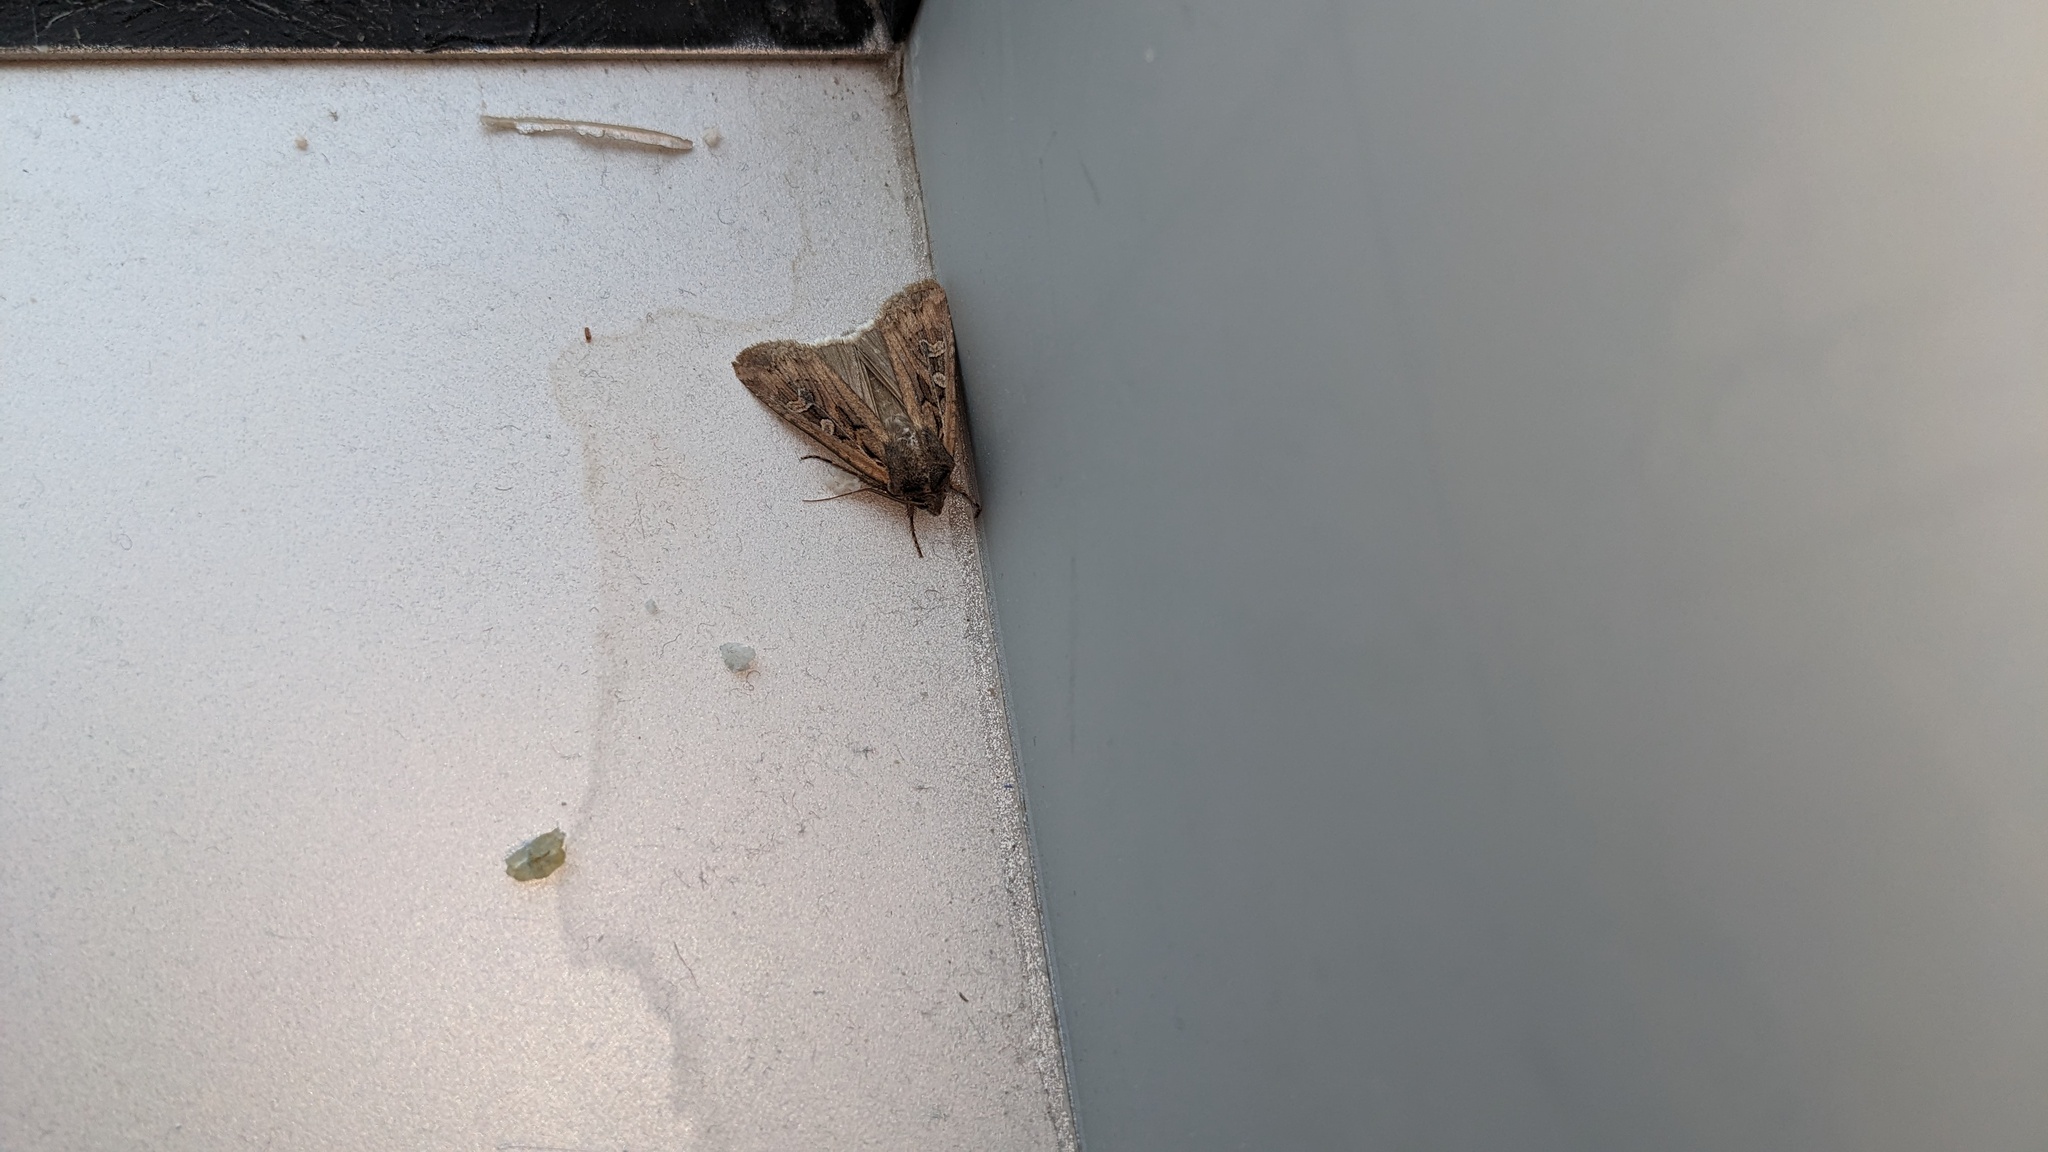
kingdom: Animalia
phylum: Arthropoda
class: Insecta
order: Lepidoptera
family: Noctuidae
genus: Euxoa
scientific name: Euxoa auxiliaris
